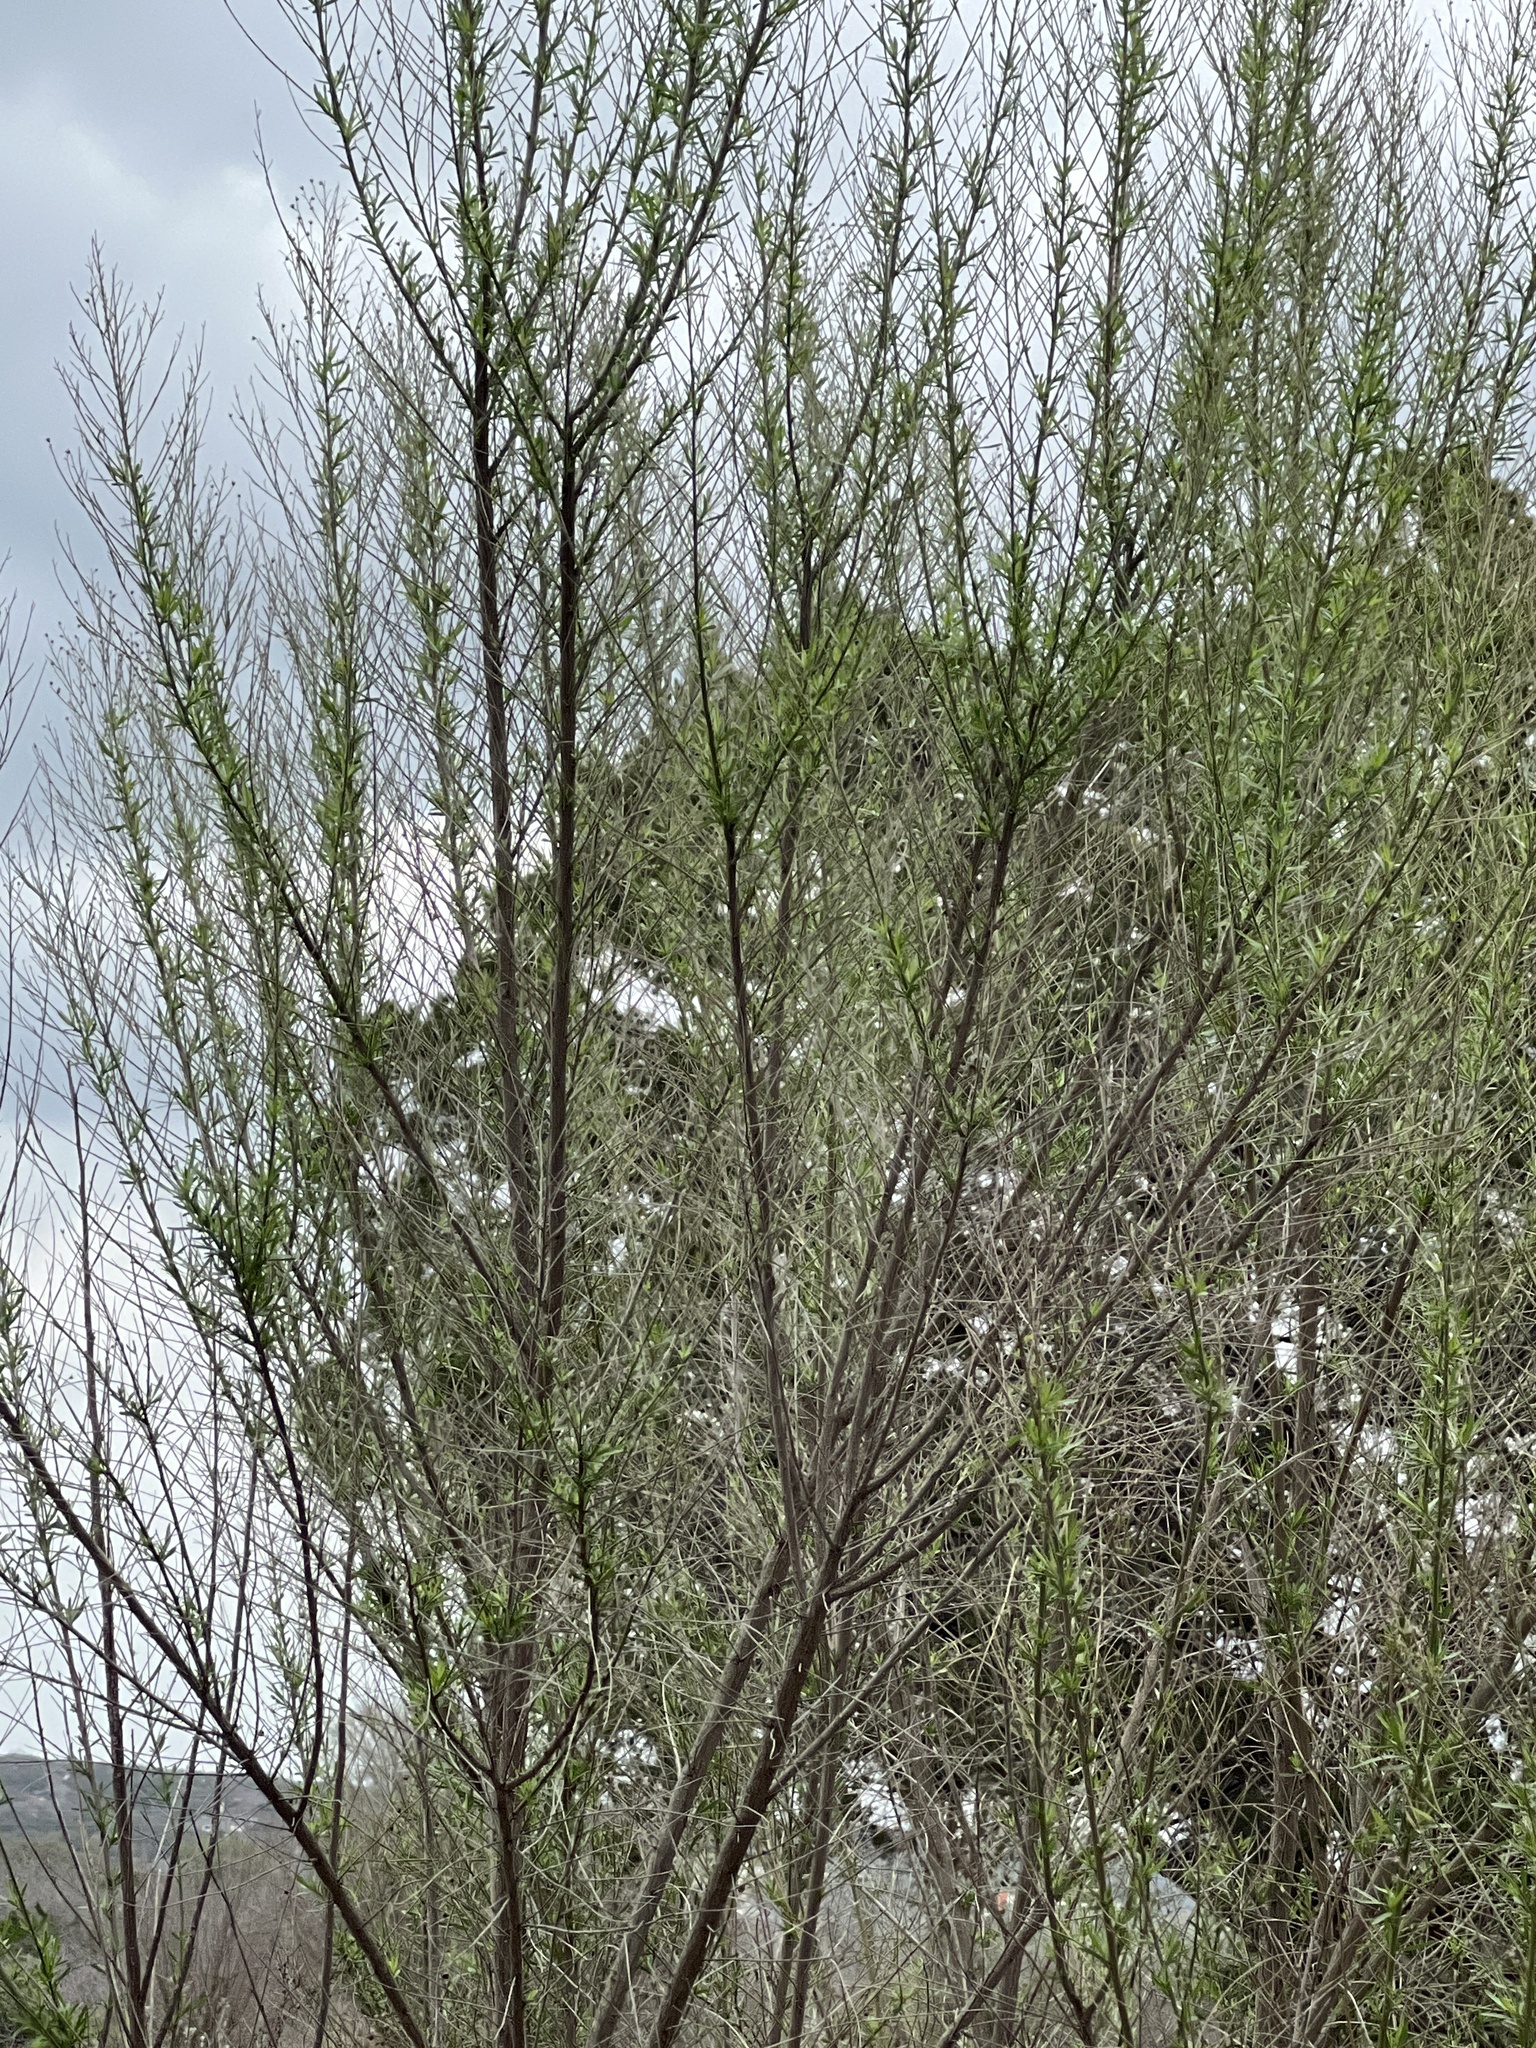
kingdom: Plantae
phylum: Tracheophyta
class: Magnoliopsida
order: Asterales
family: Asteraceae
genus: Baccharis
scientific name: Baccharis neglecta
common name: Roosevelt-weed
